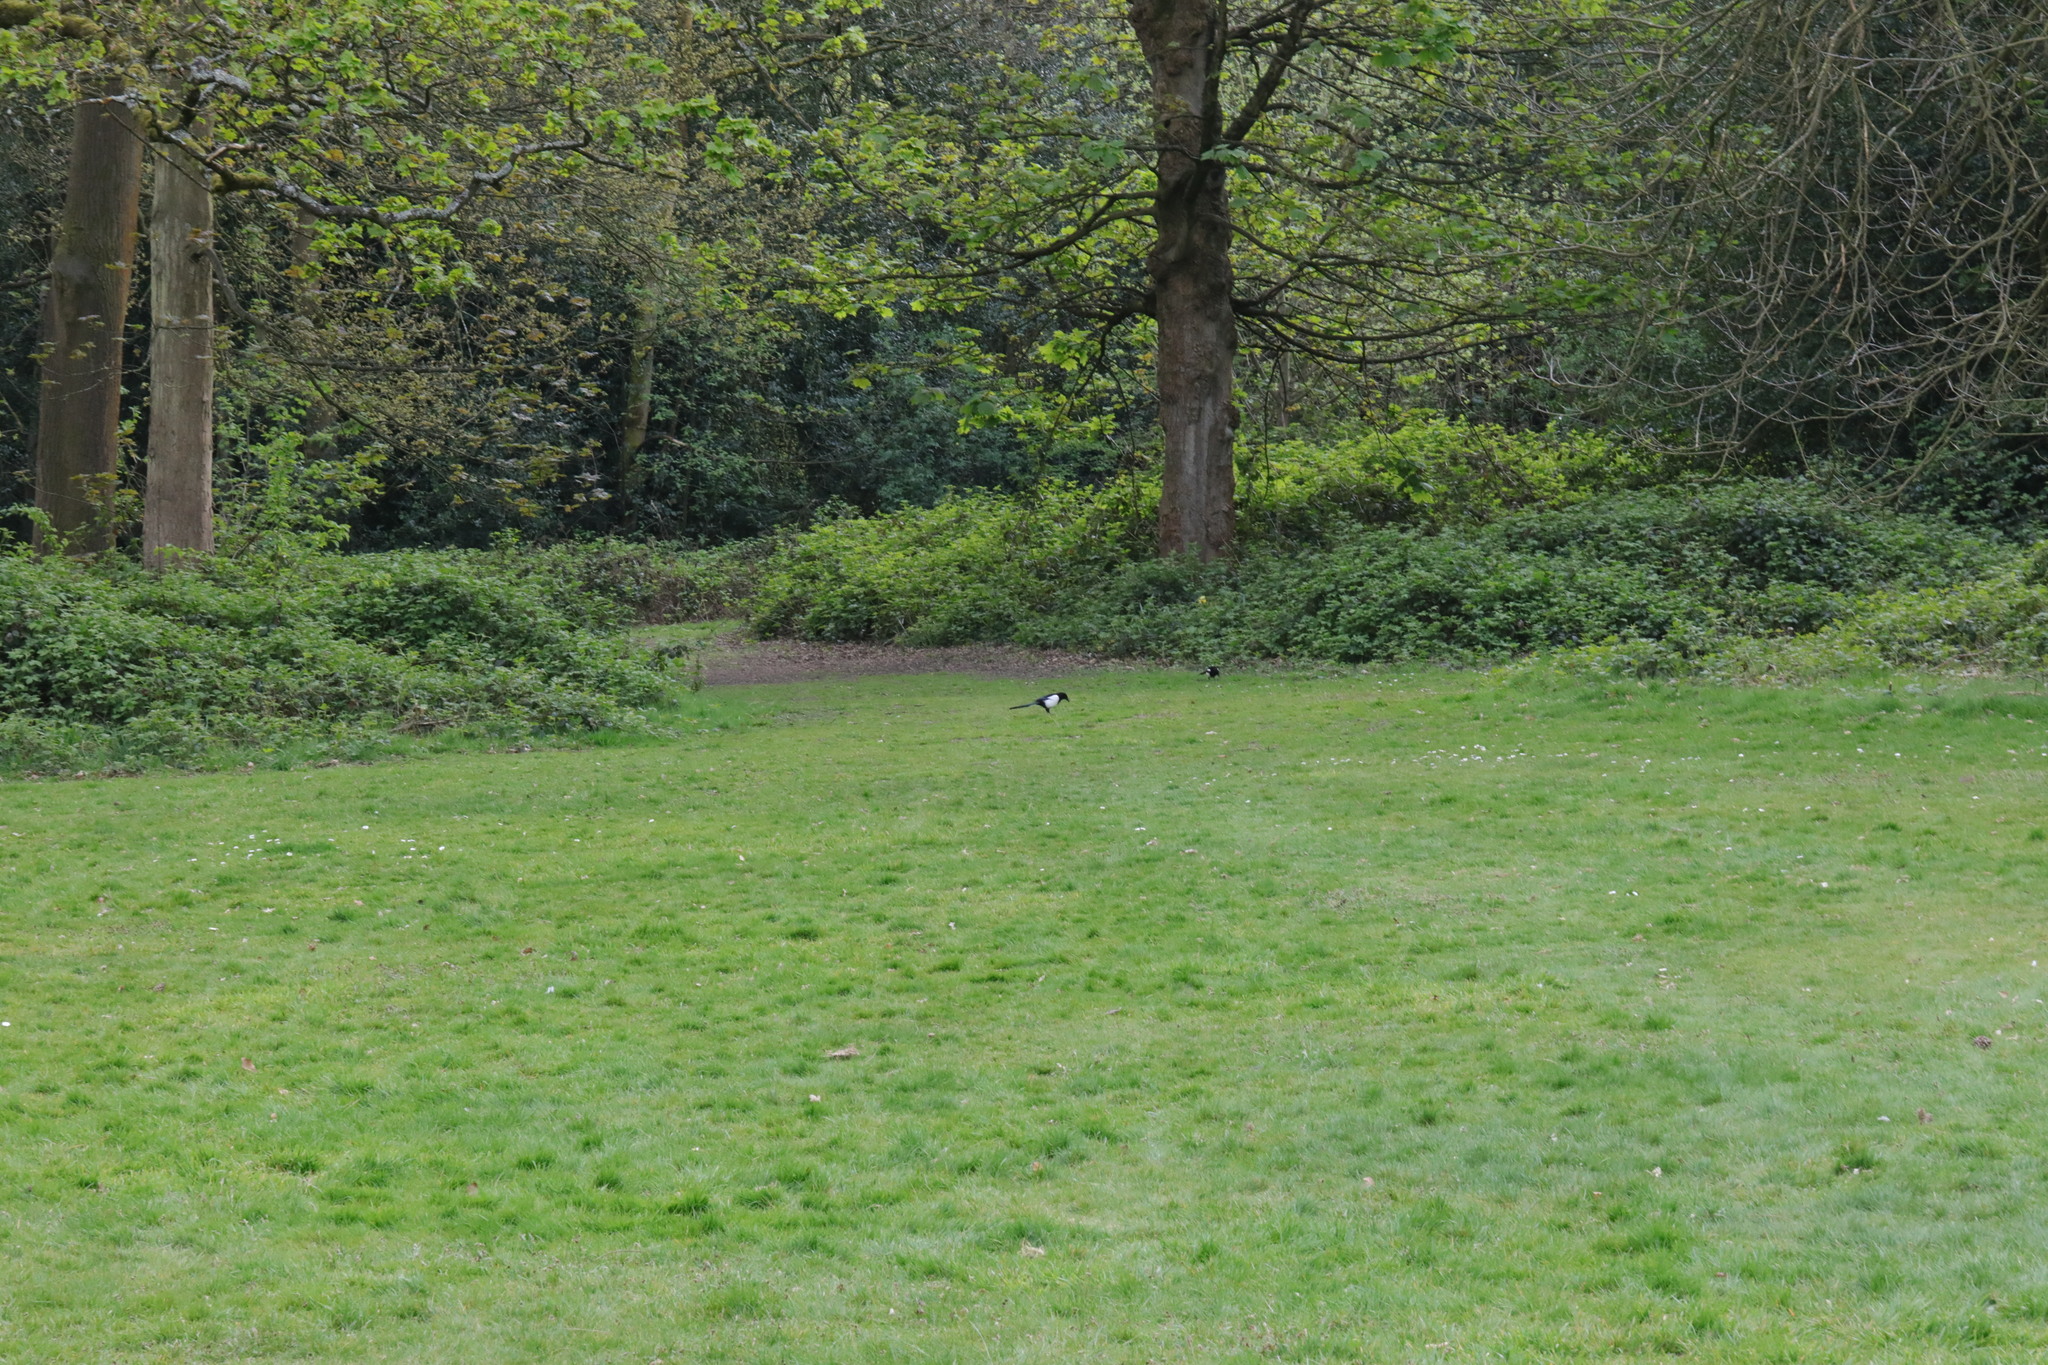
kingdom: Animalia
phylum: Chordata
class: Aves
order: Passeriformes
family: Corvidae
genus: Pica
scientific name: Pica pica
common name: Eurasian magpie
